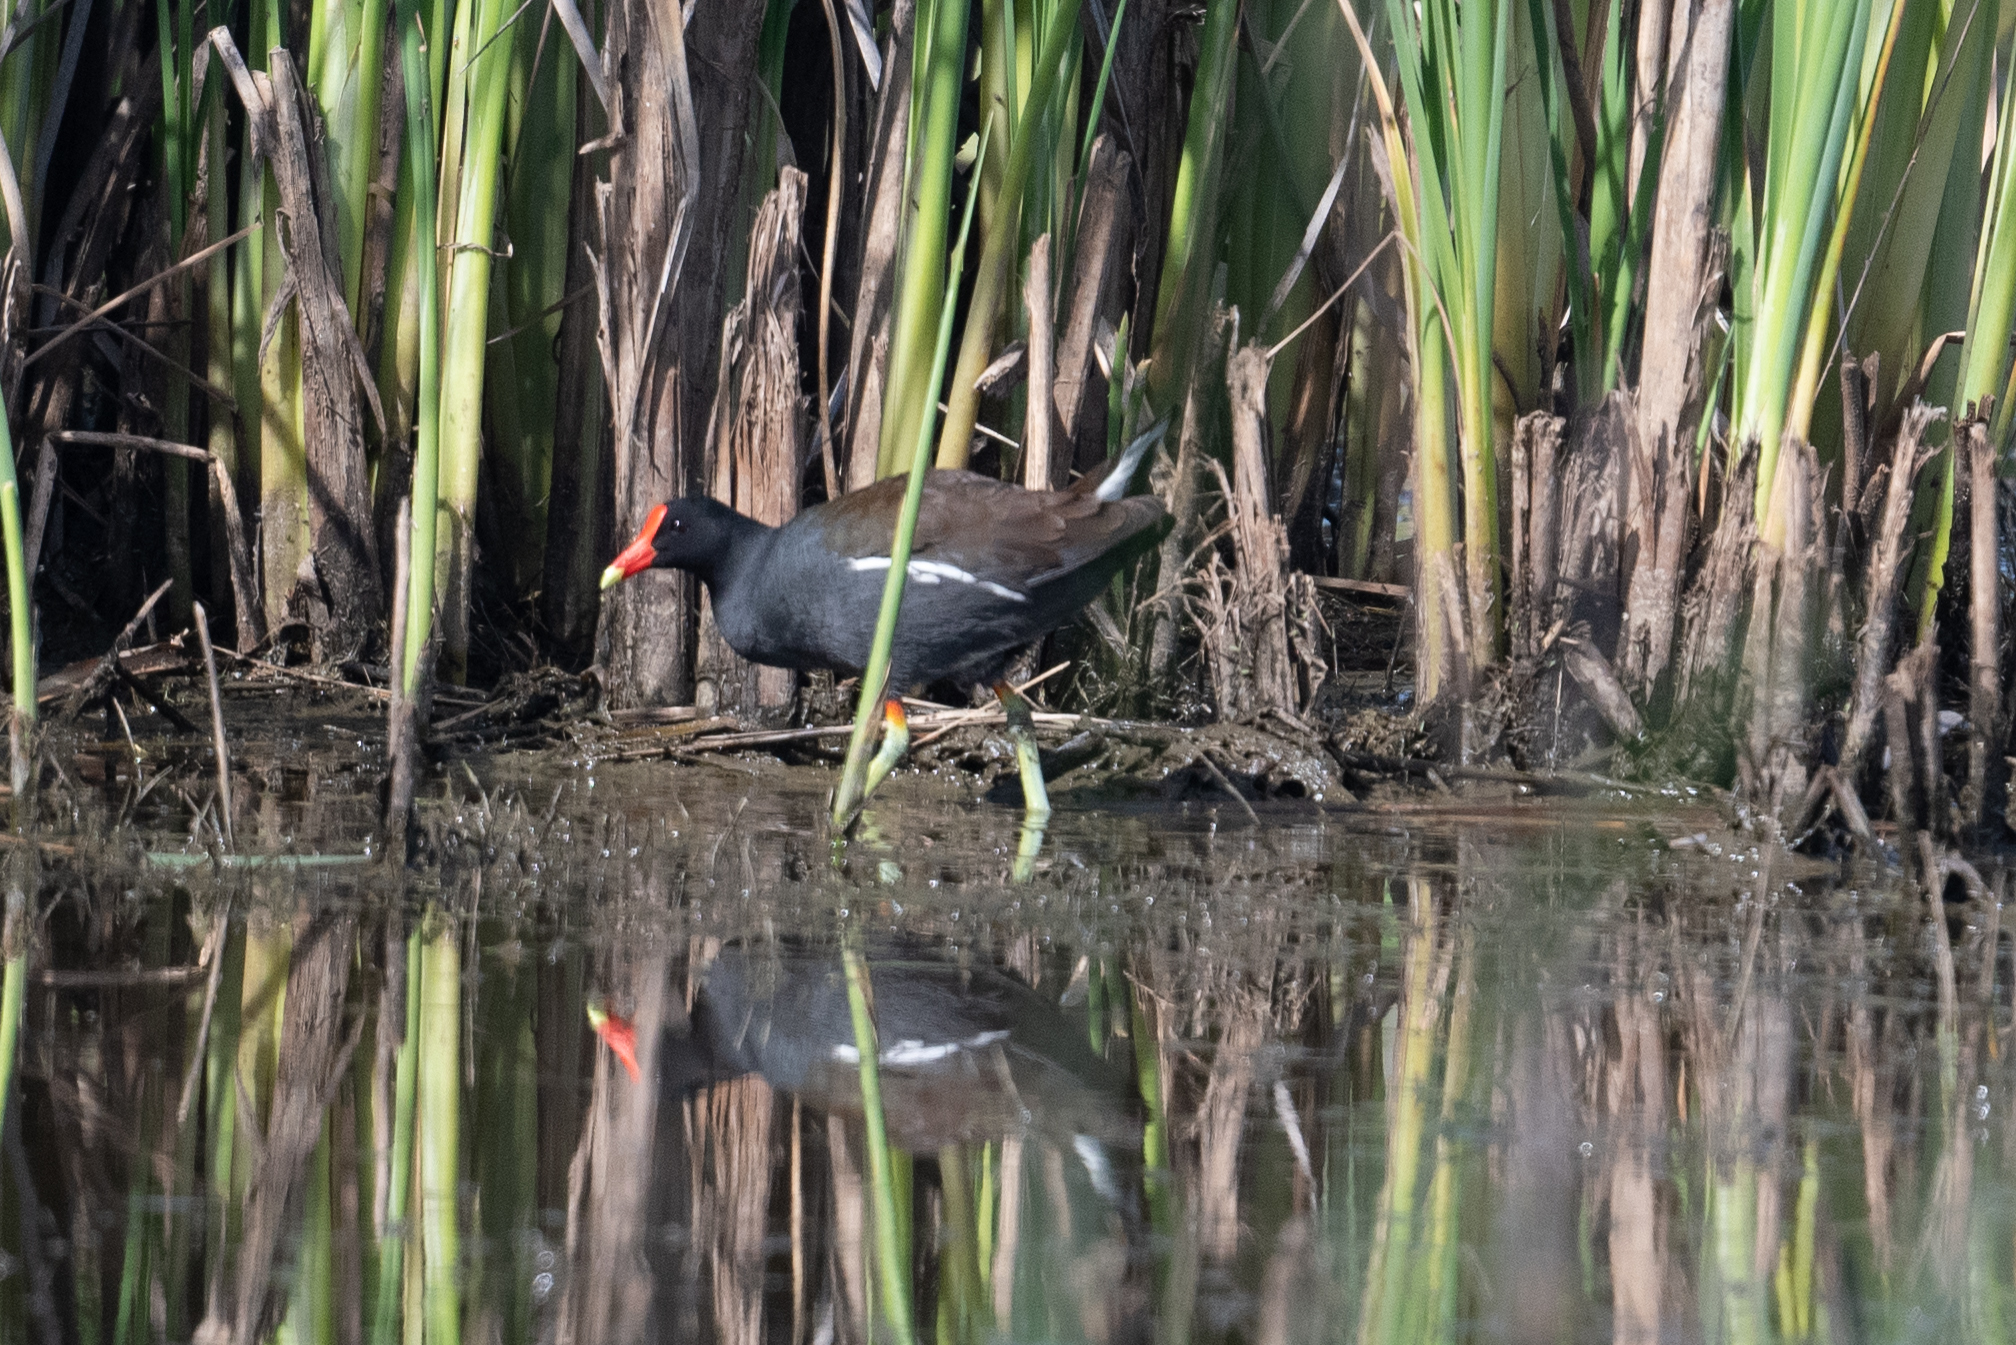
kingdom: Animalia
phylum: Chordata
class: Aves
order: Gruiformes
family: Rallidae
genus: Gallinula
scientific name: Gallinula chloropus
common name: Common moorhen
